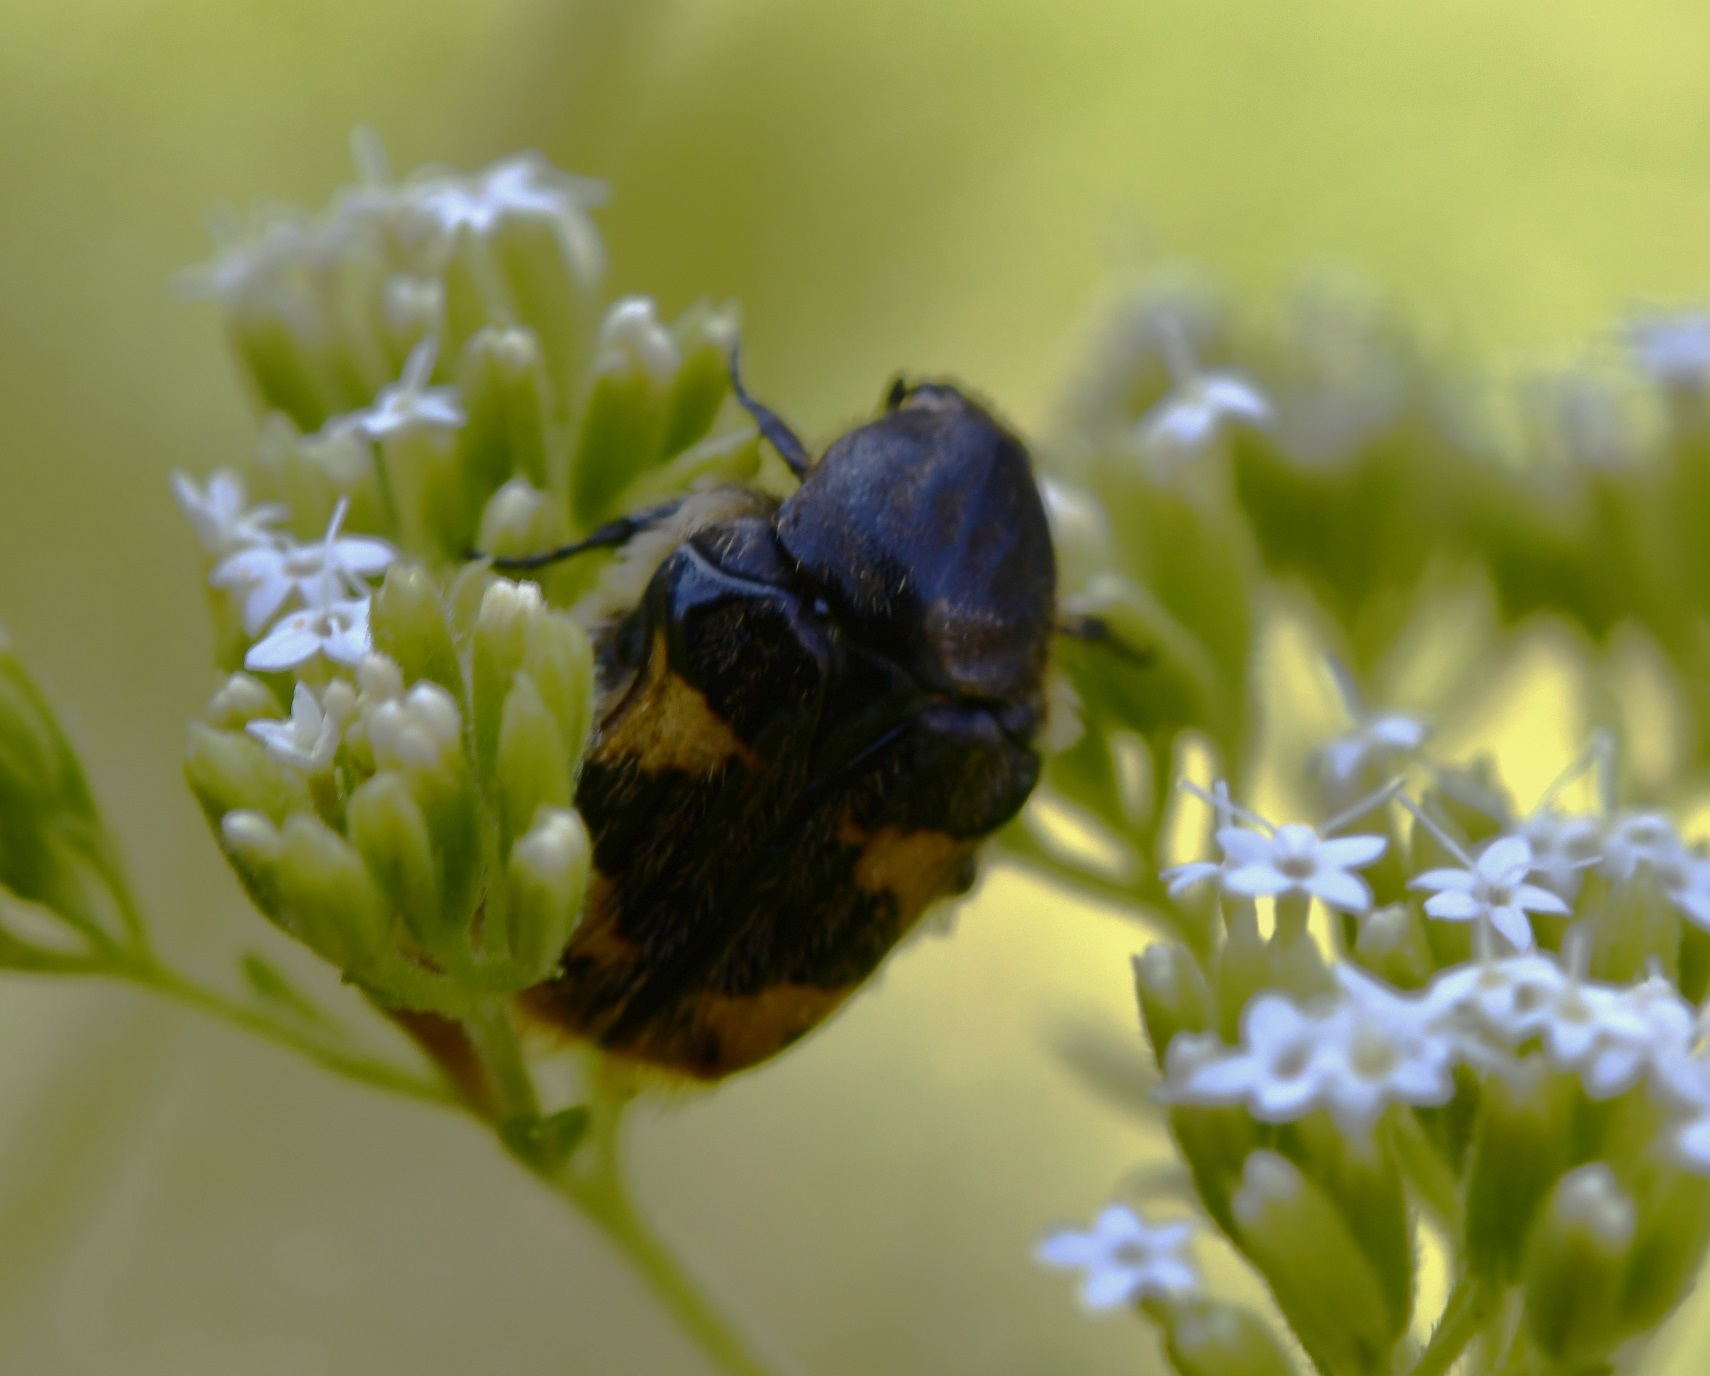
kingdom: Animalia
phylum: Arthropoda
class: Insecta
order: Coleoptera
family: Scarabaeidae
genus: Euphoria
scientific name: Euphoria basalis
